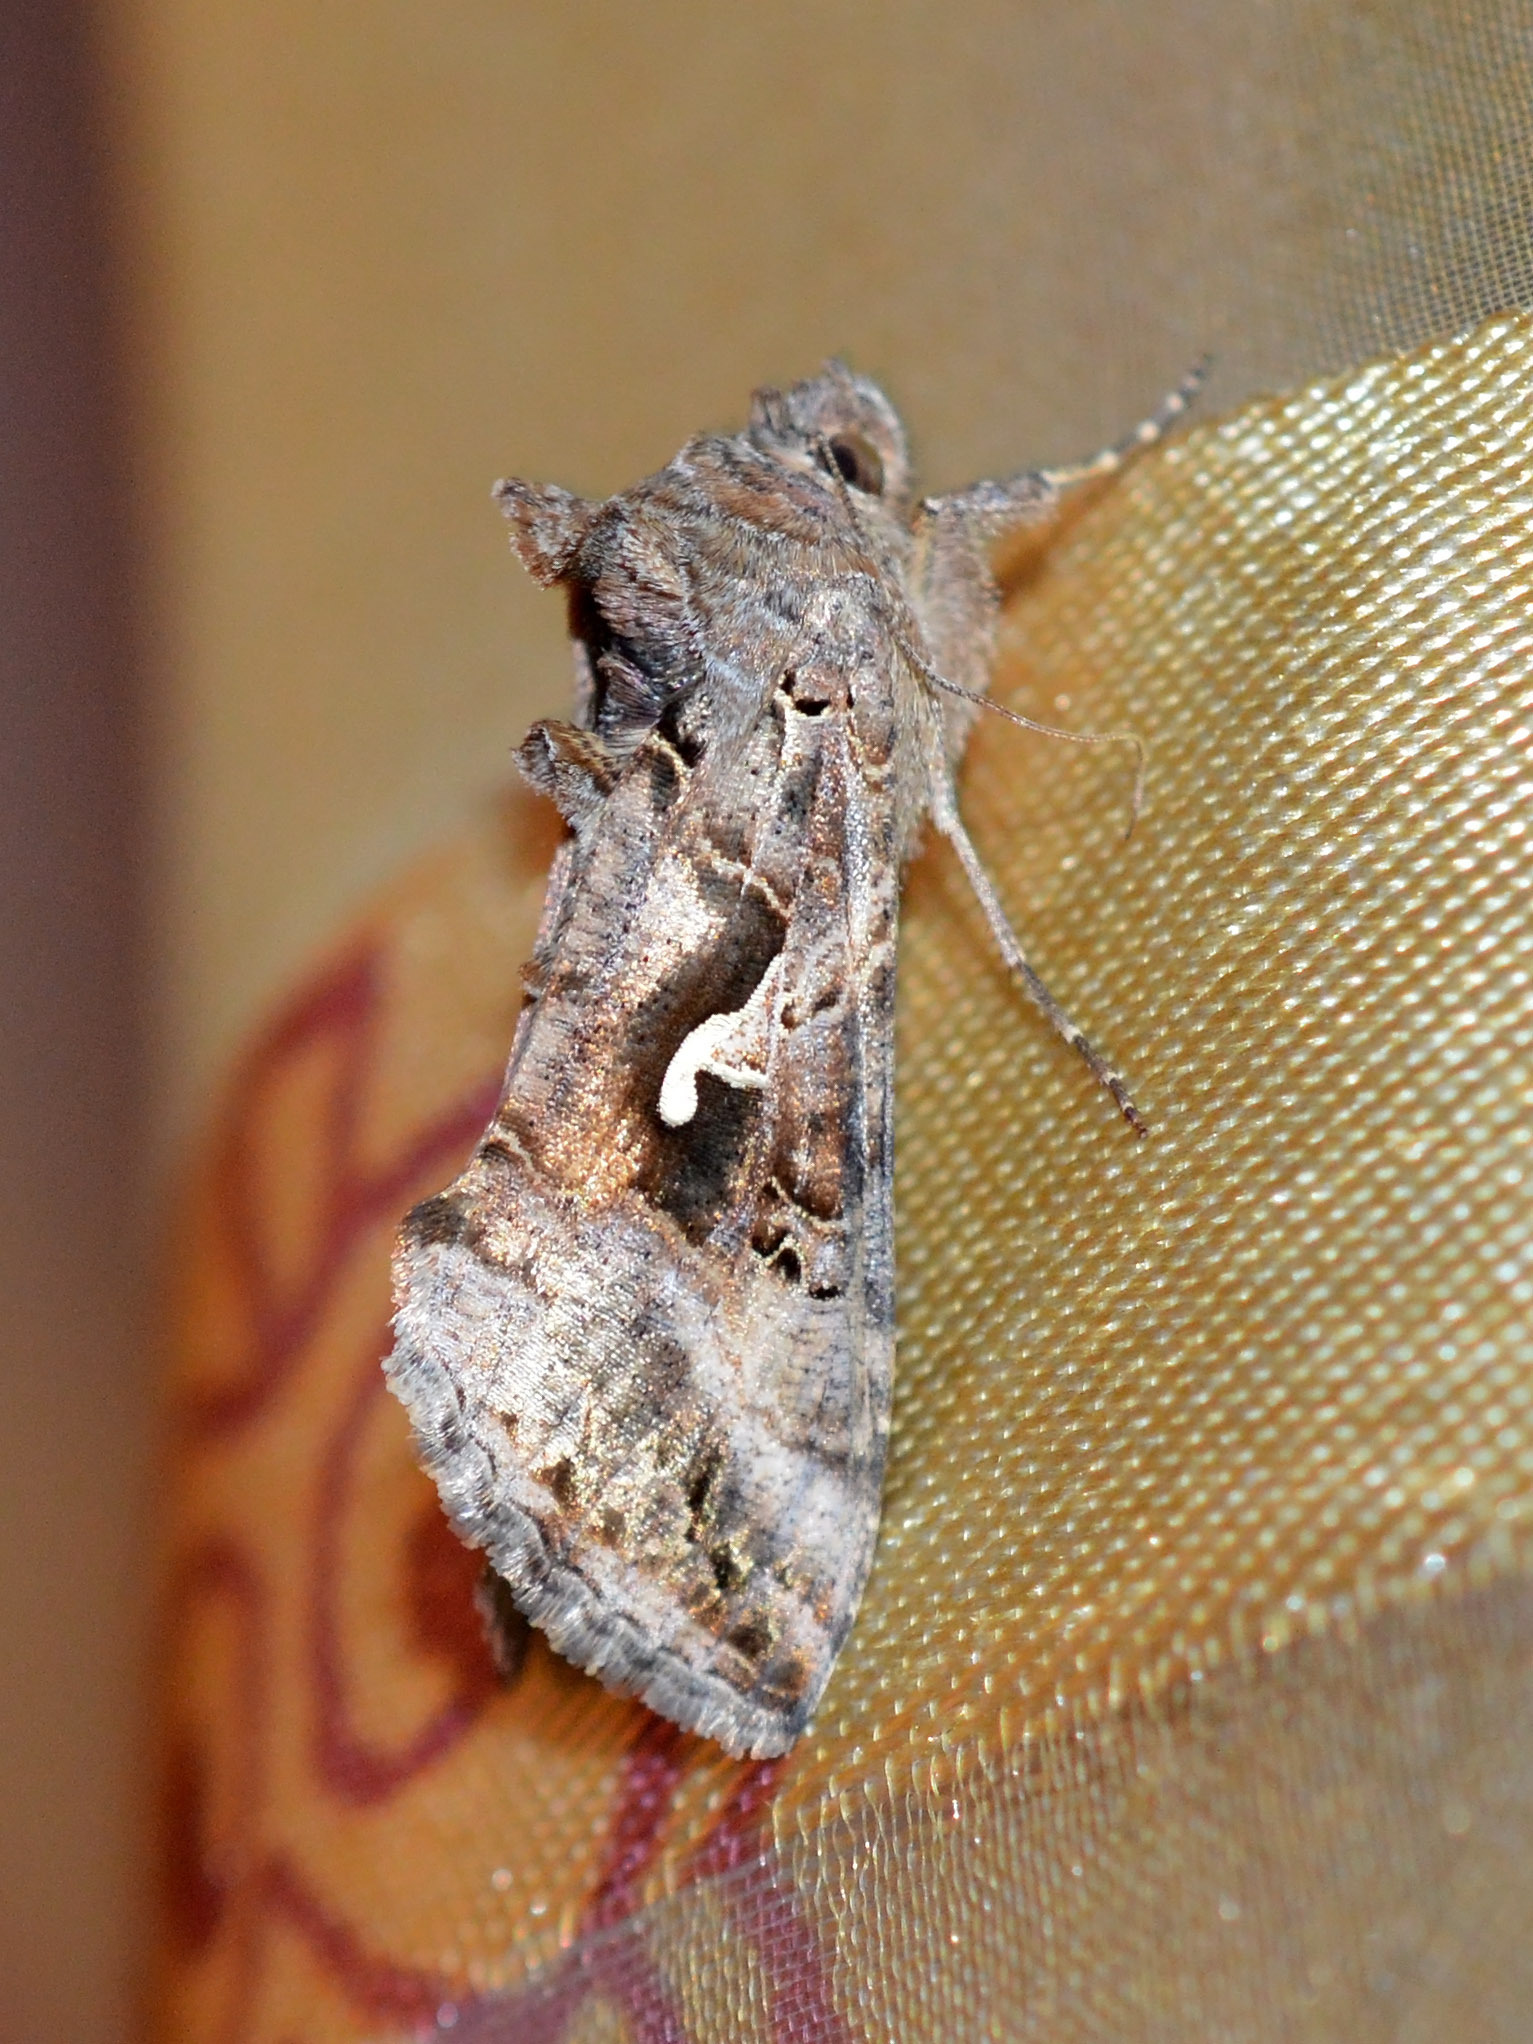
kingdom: Animalia
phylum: Arthropoda
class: Insecta
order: Lepidoptera
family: Noctuidae
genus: Autographa
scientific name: Autographa gamma
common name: Silver y
